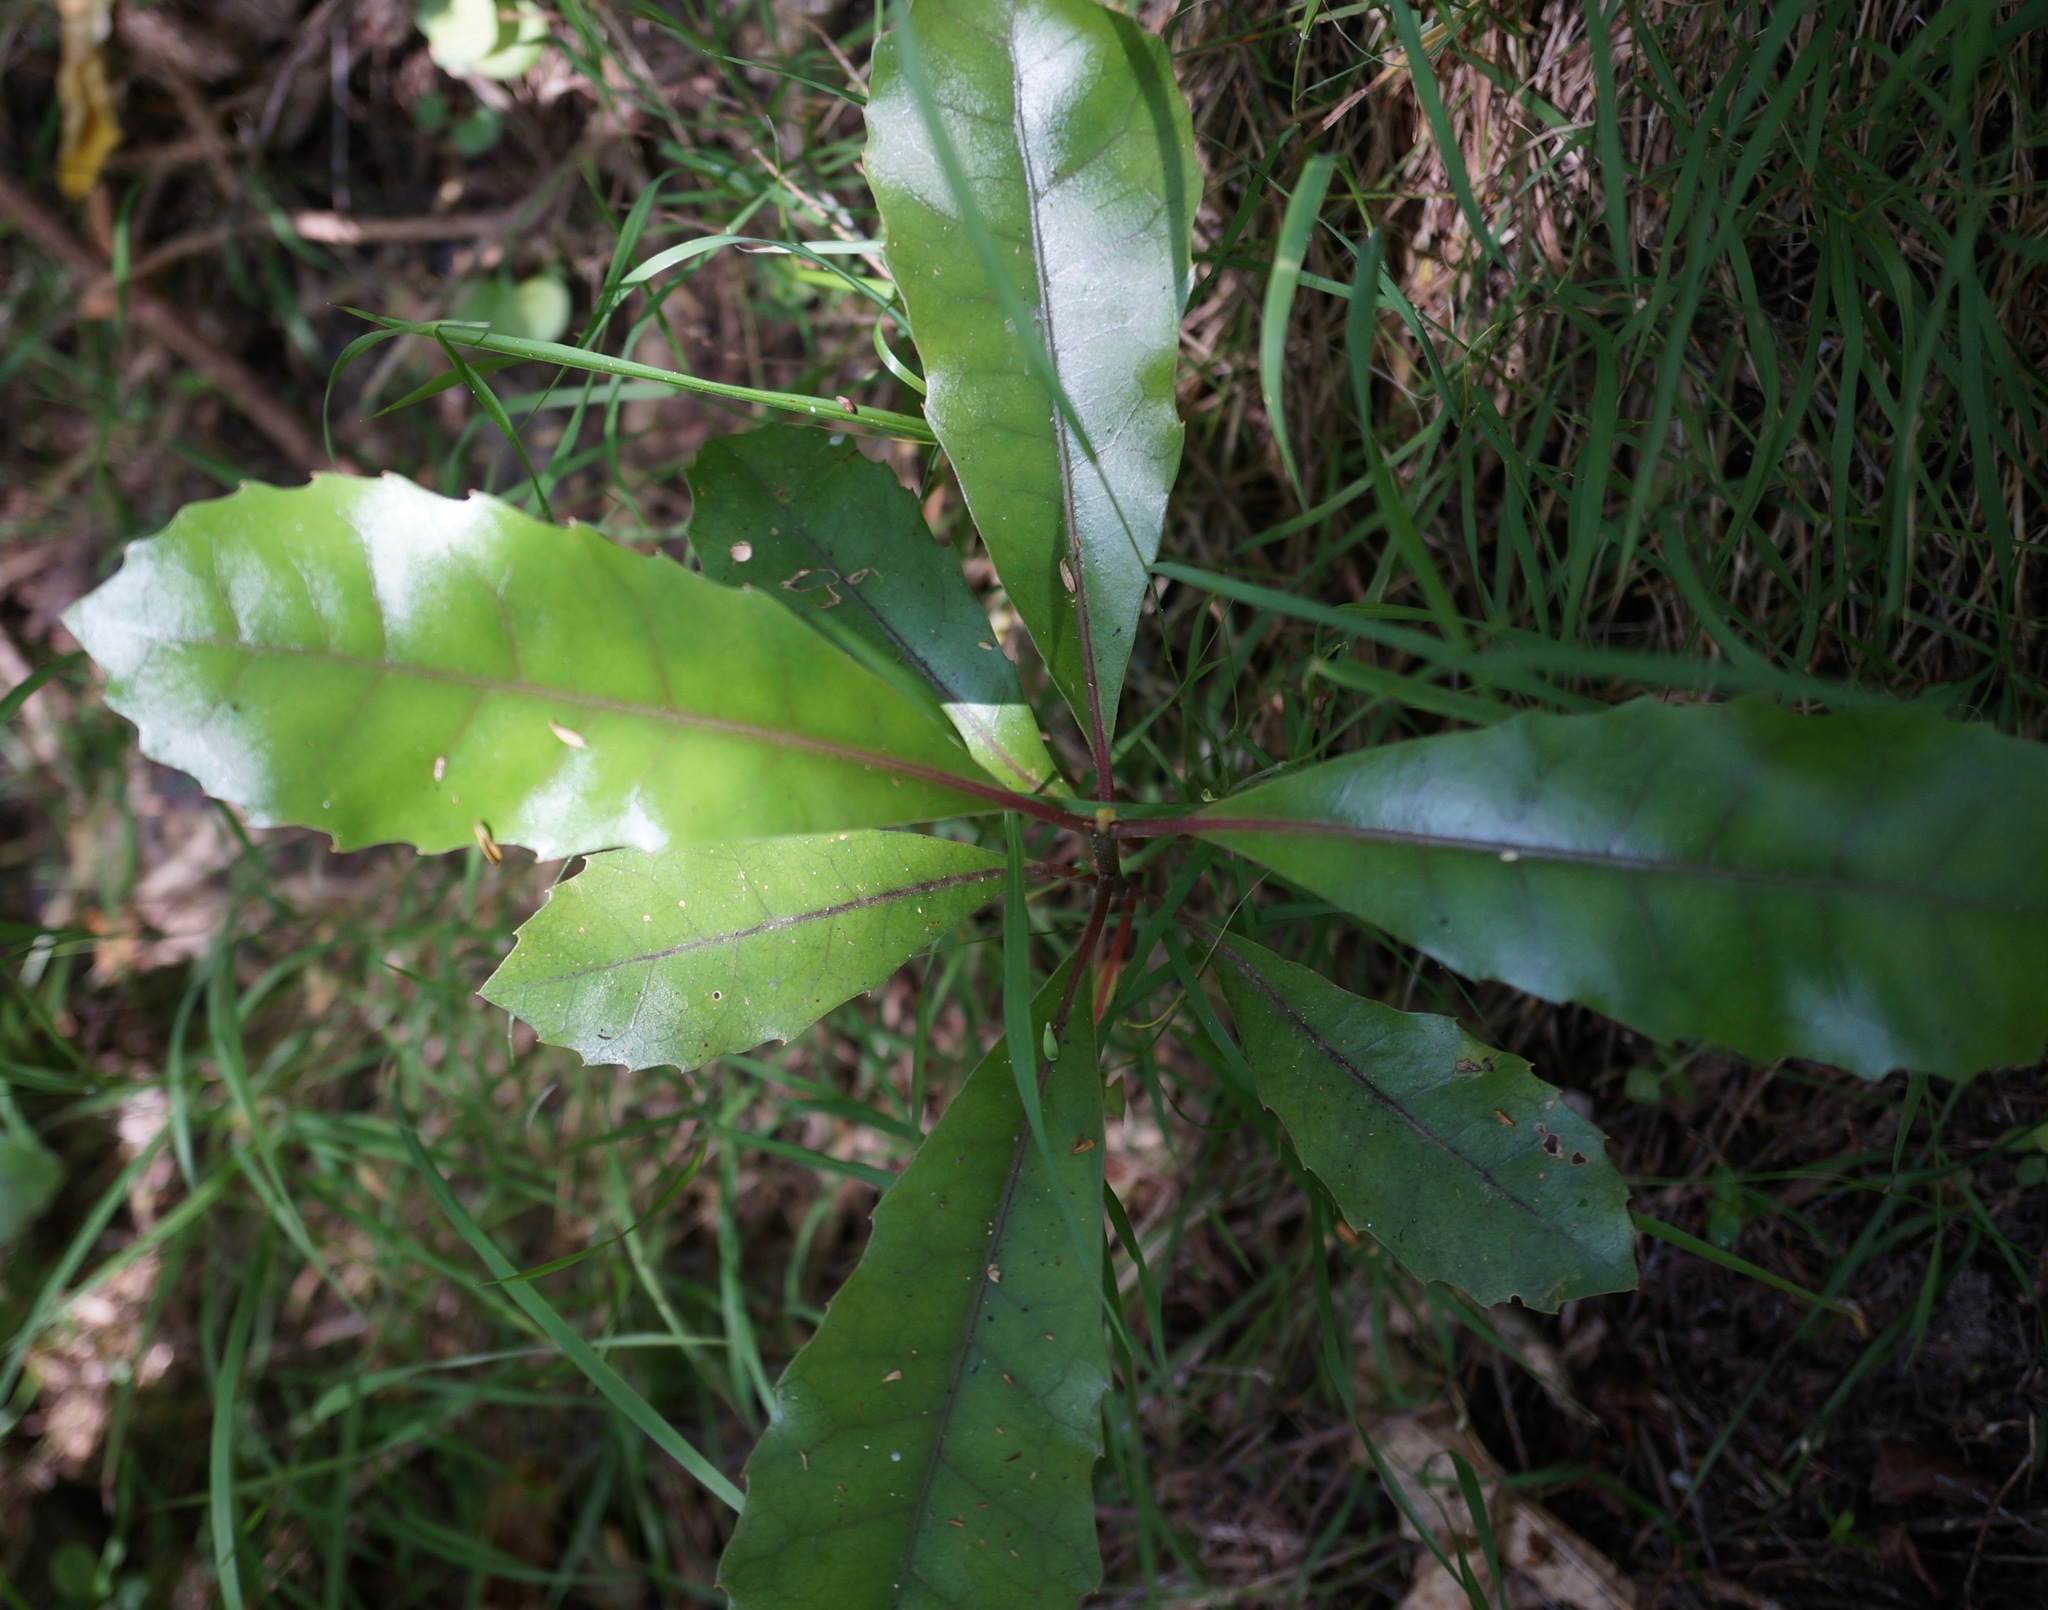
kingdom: Plantae
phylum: Tracheophyta
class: Magnoliopsida
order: Laurales
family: Monimiaceae
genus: Hedycarya
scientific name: Hedycarya arborea
